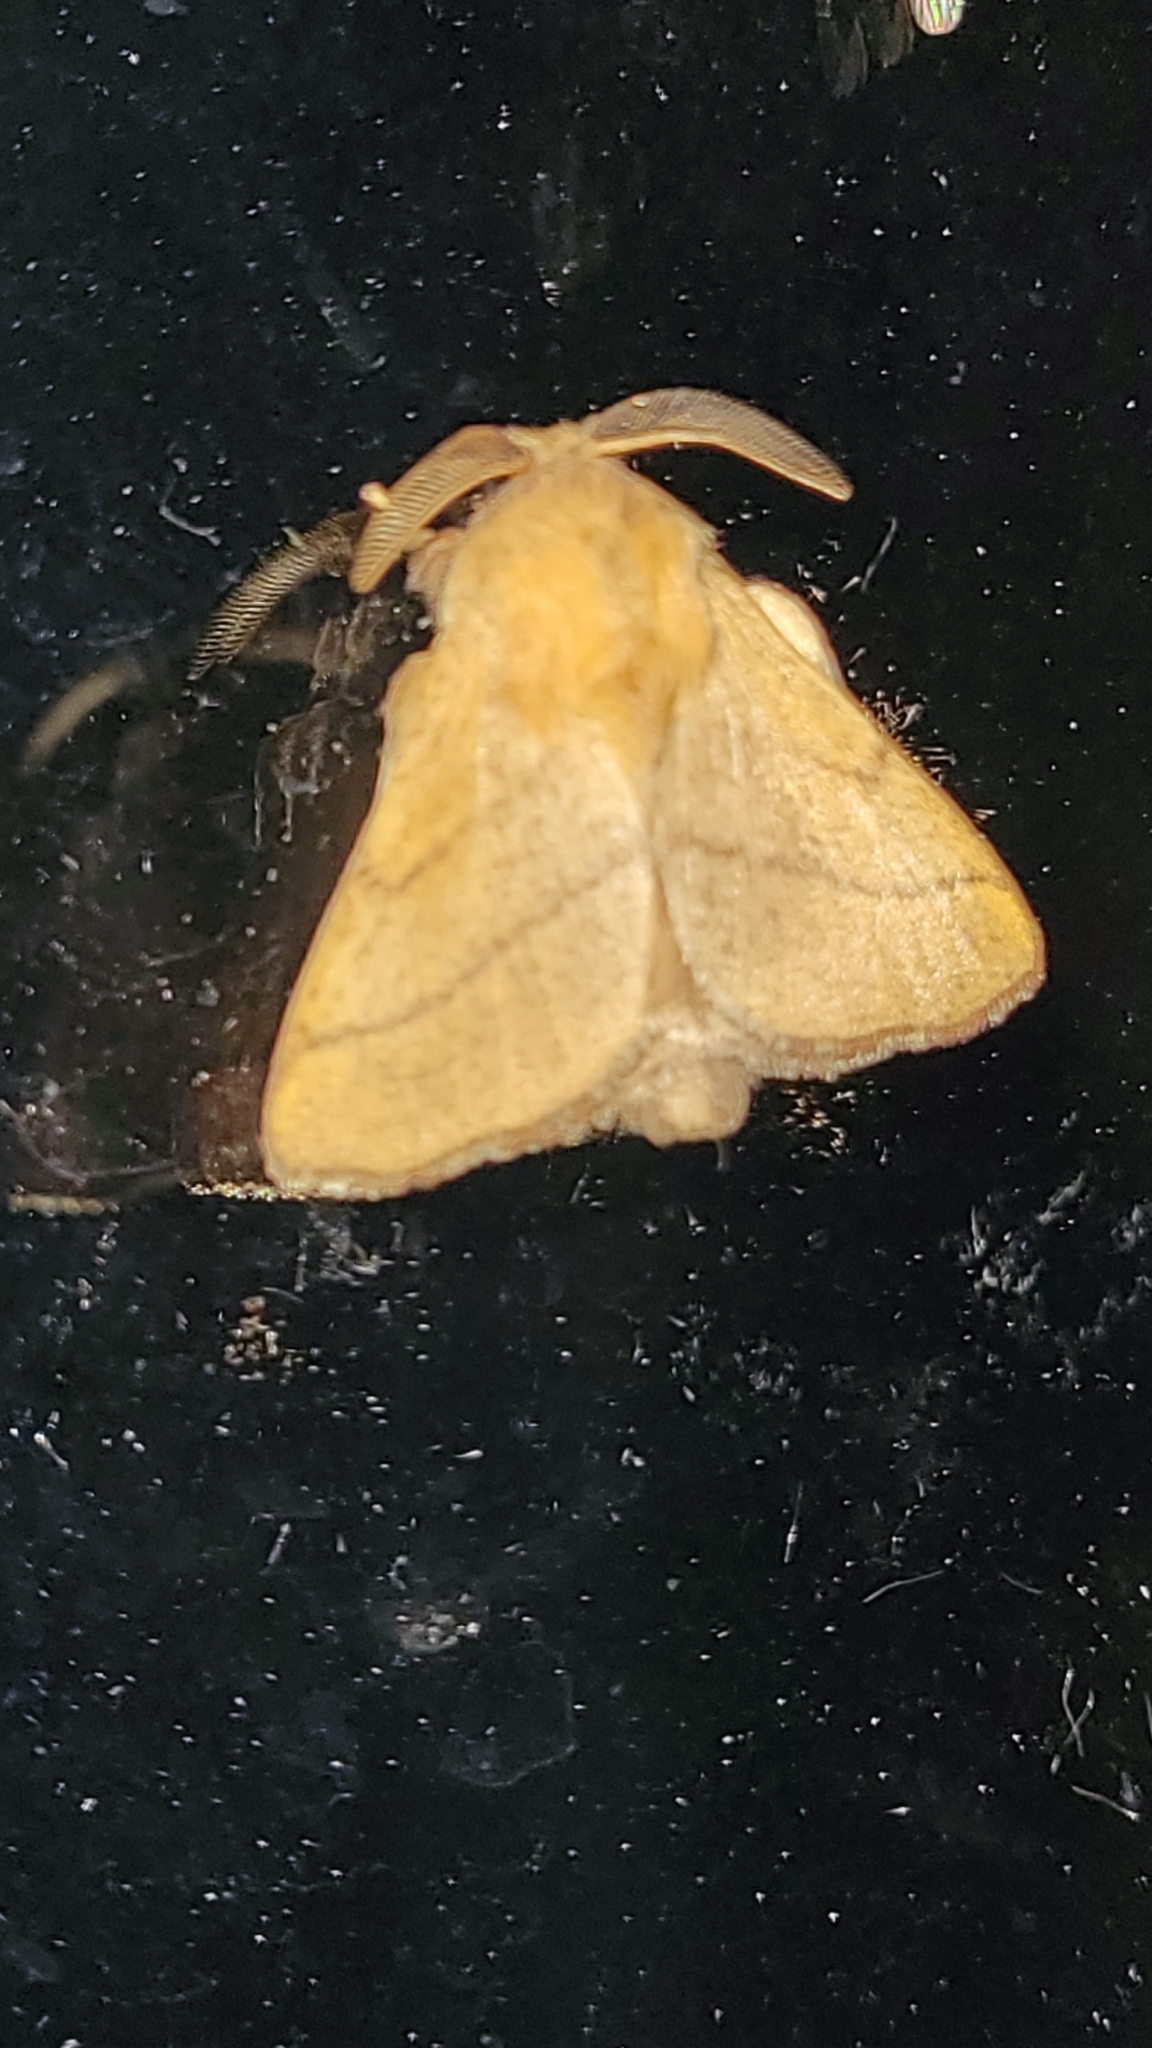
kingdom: Animalia
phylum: Arthropoda
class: Insecta
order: Lepidoptera
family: Lasiocampidae
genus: Malacosoma
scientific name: Malacosoma disstria
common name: Forest tent caterpillar
